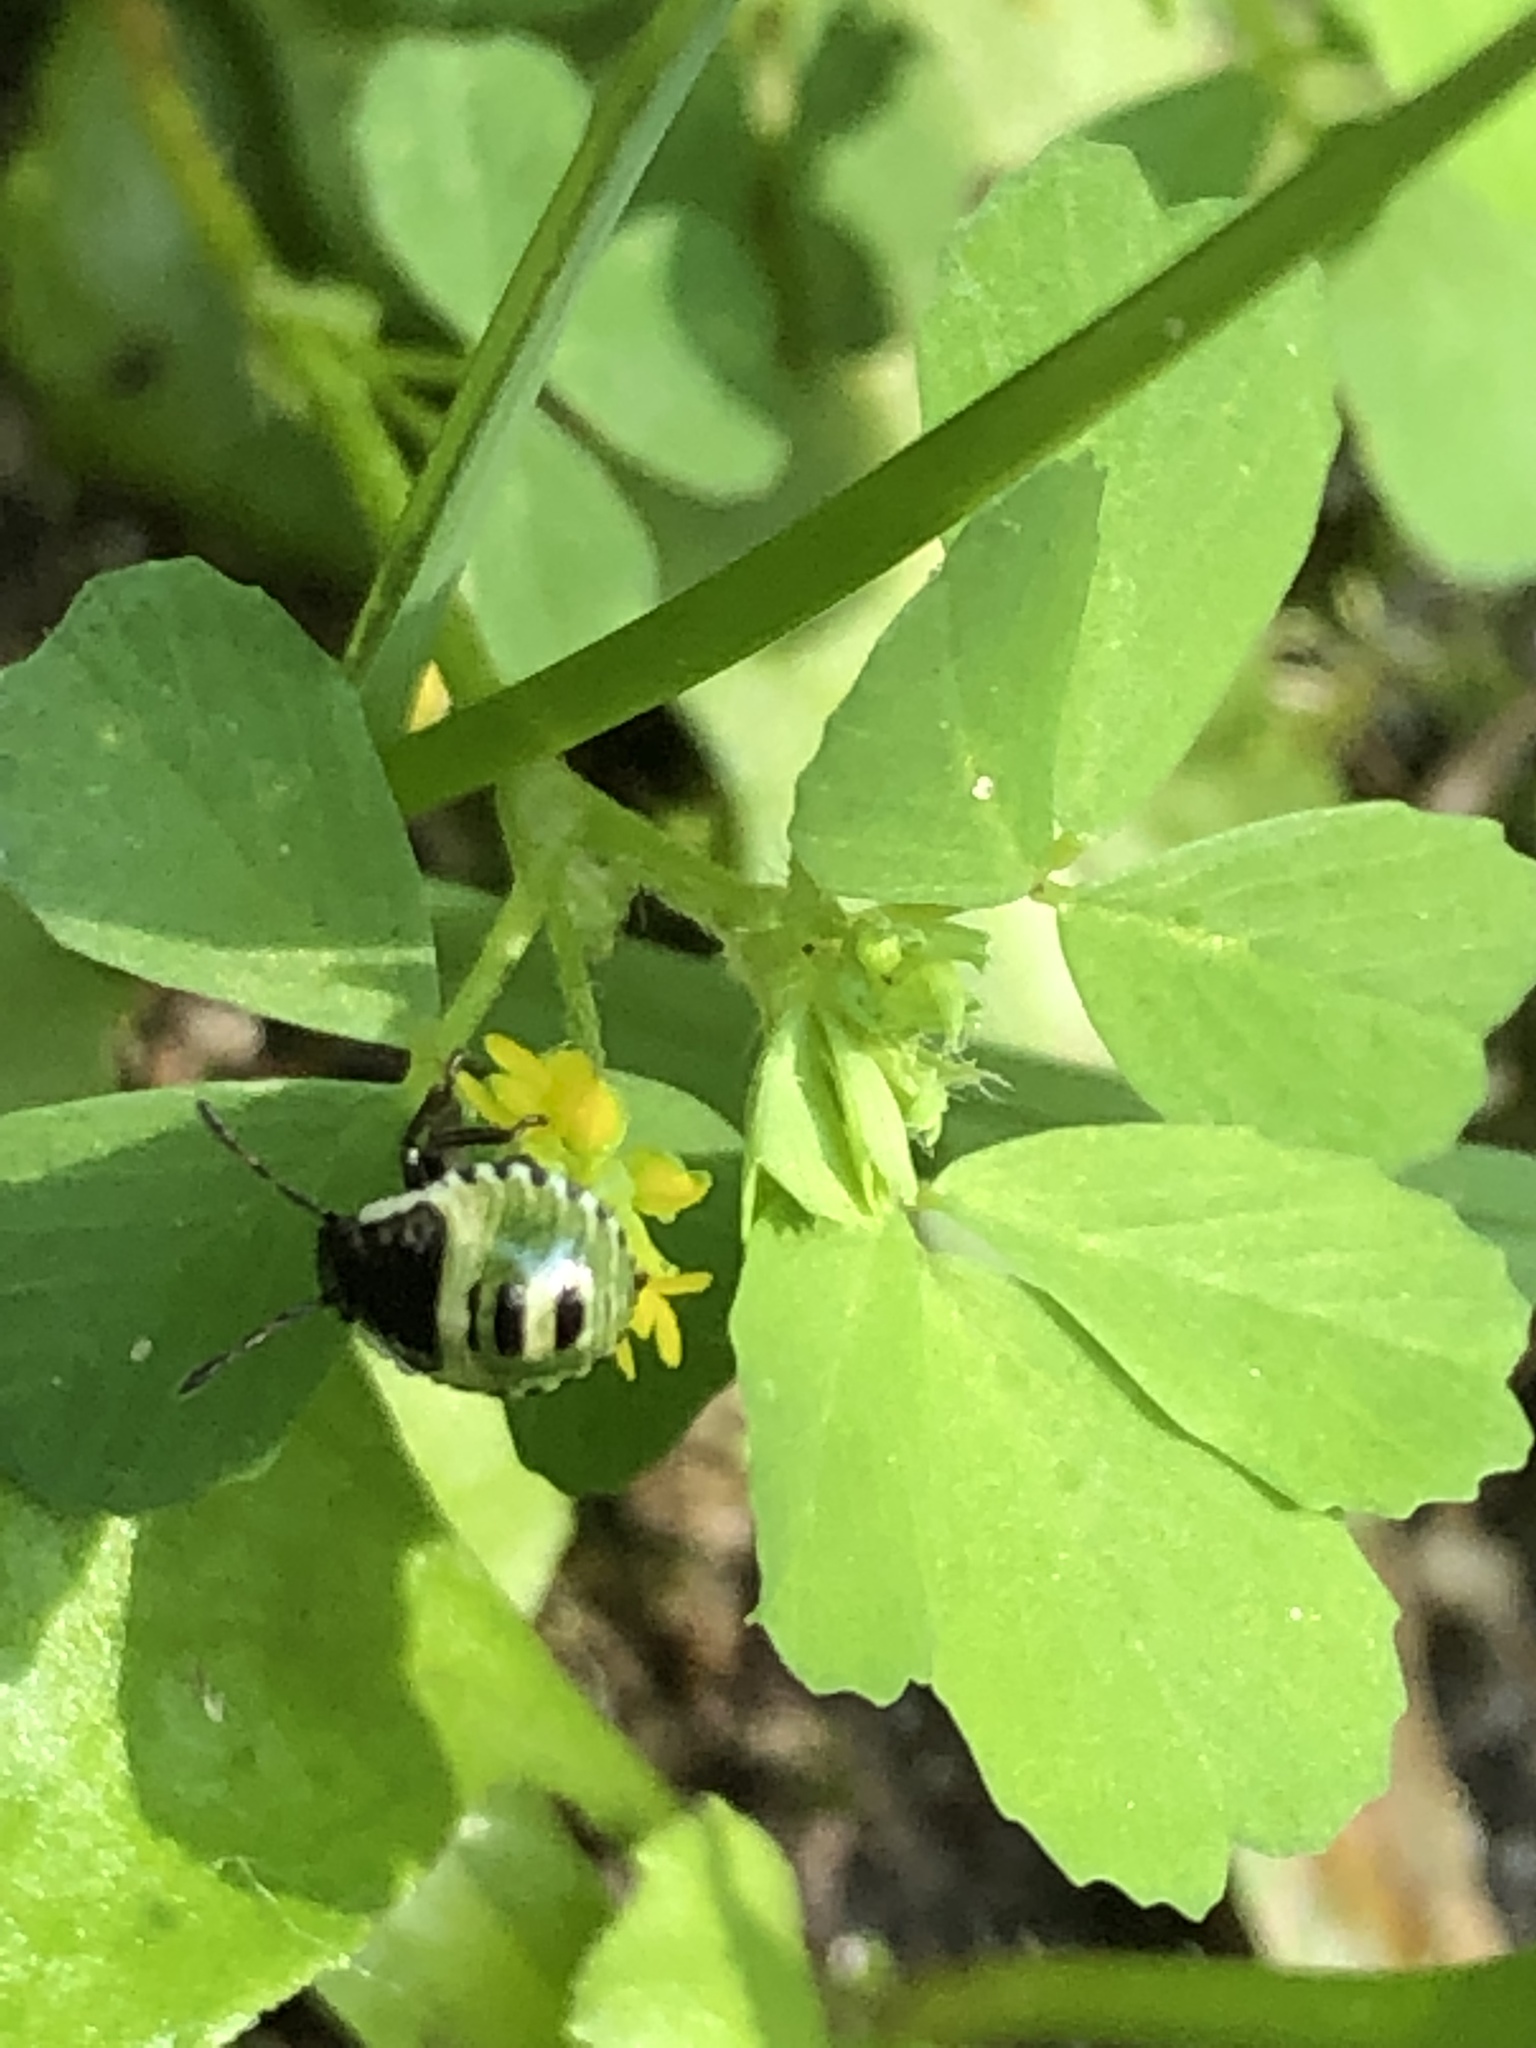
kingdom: Animalia
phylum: Arthropoda
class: Insecta
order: Hemiptera
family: Pentatomidae
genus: Palomena
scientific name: Palomena prasina
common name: Green shieldbug
